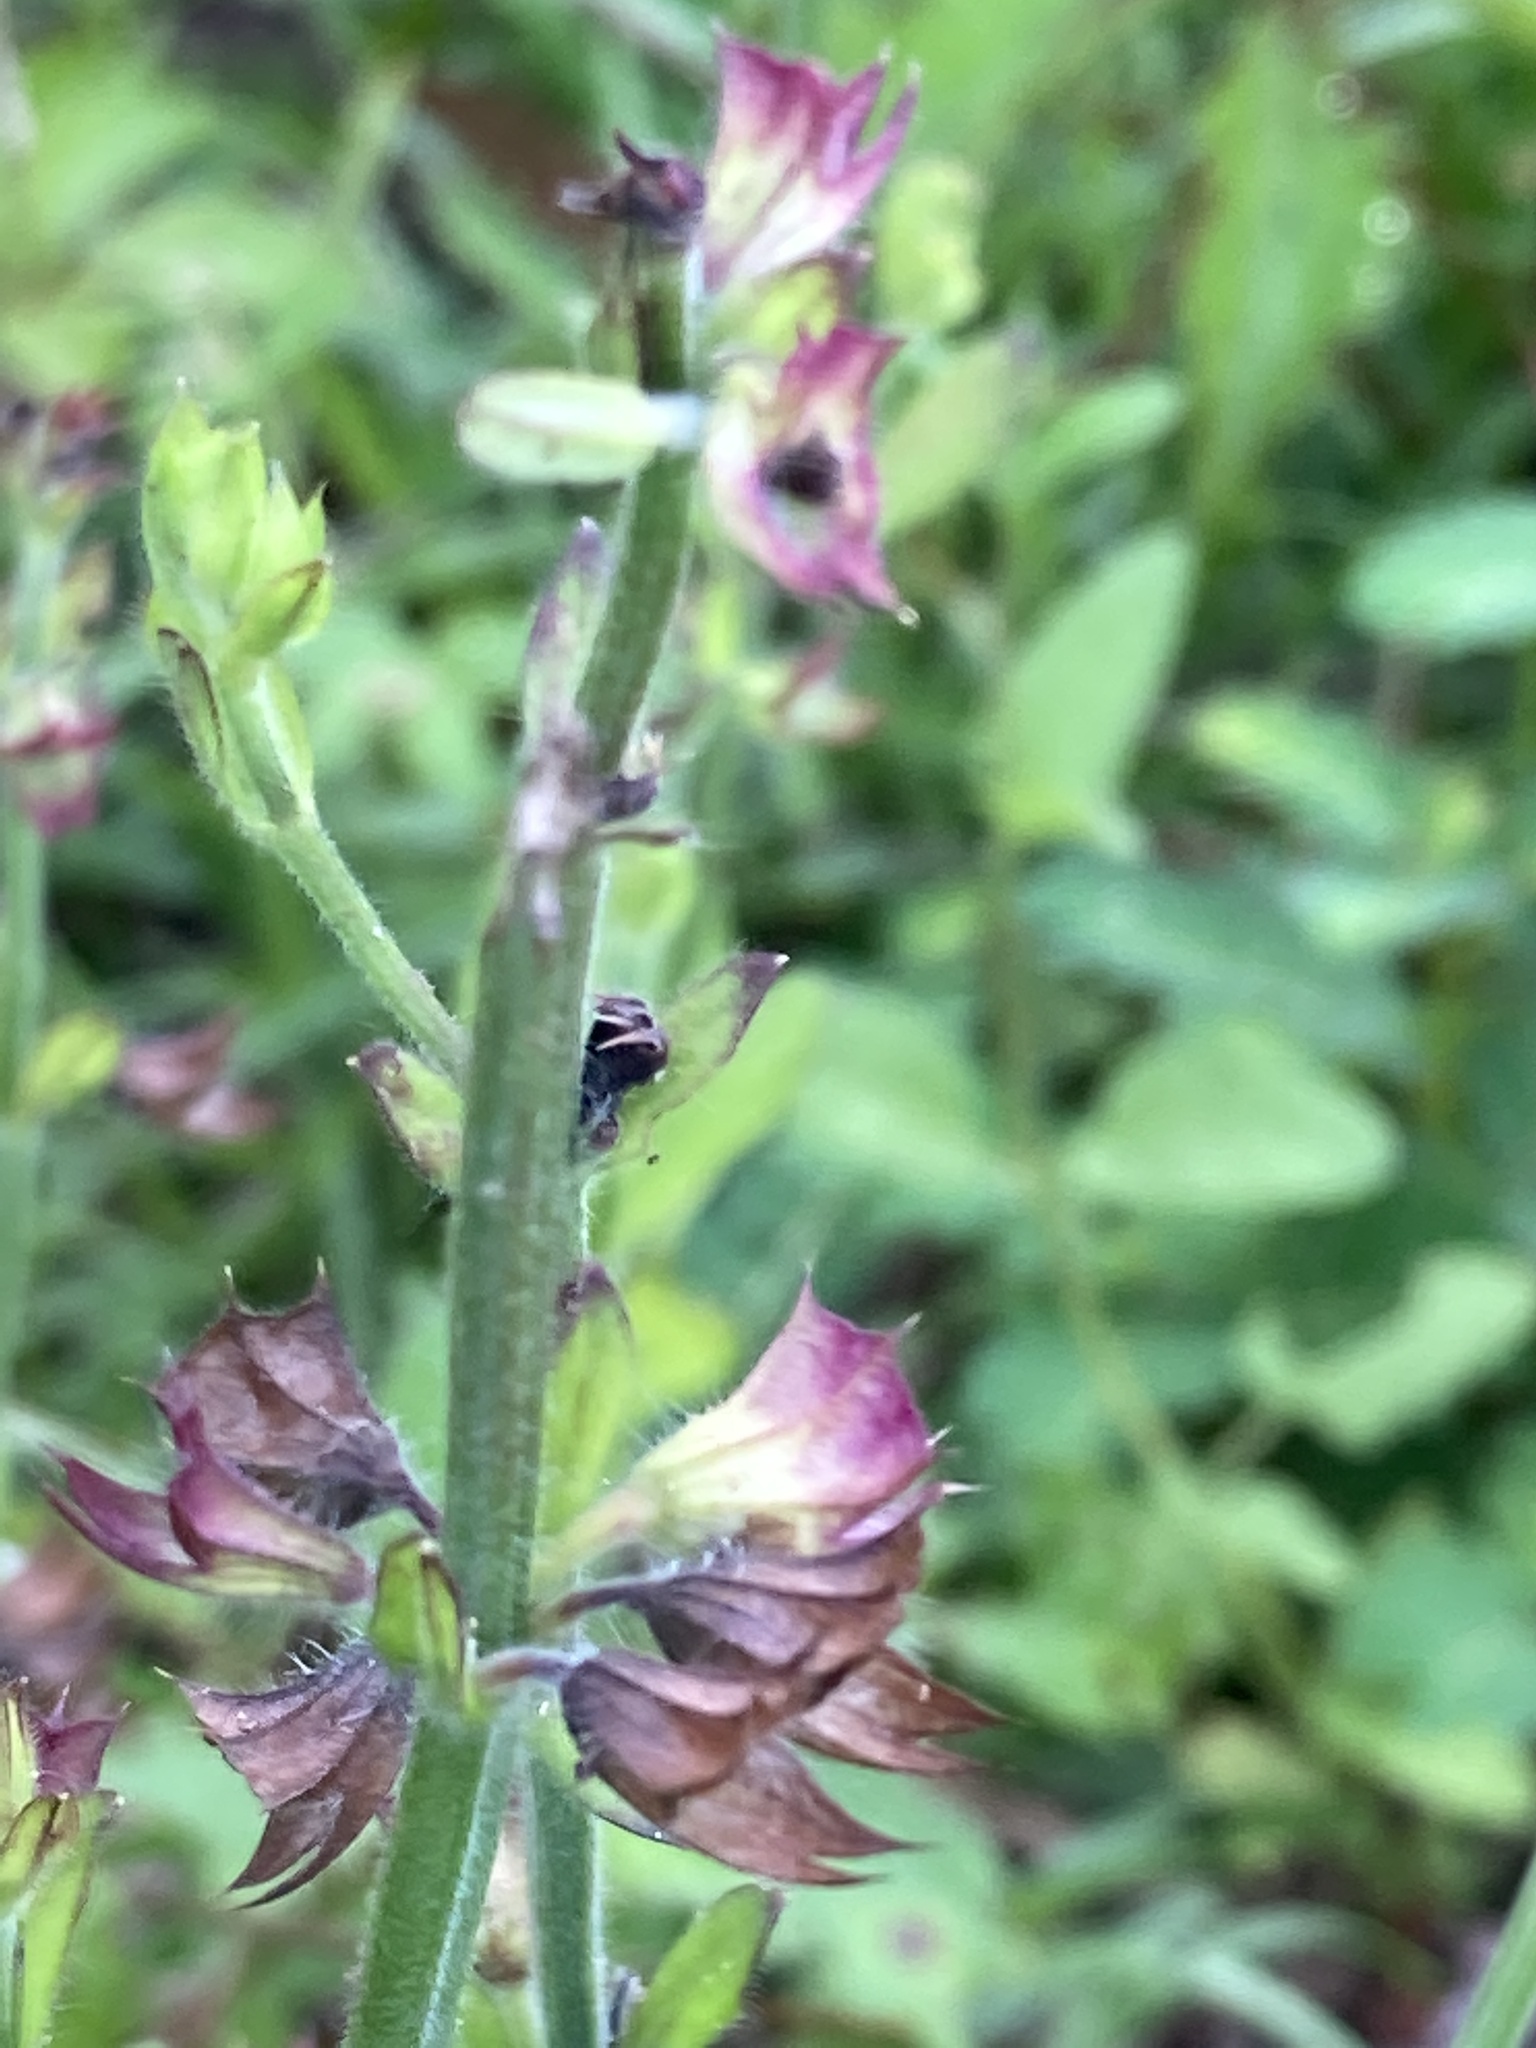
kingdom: Plantae
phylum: Tracheophyta
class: Magnoliopsida
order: Lamiales
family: Lamiaceae
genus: Salvia
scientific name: Salvia lyrata
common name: Cancerweed
